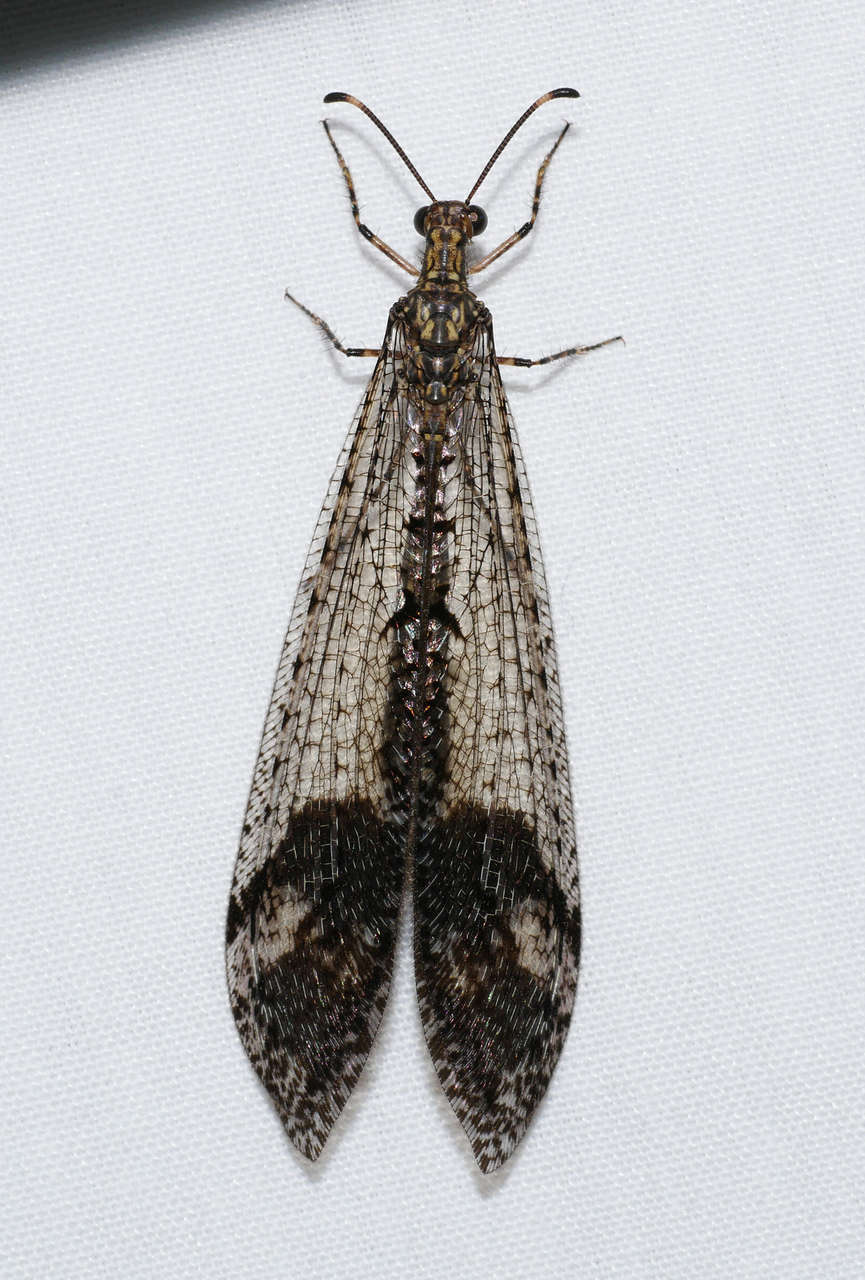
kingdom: Animalia
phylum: Arthropoda
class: Insecta
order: Neuroptera
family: Myrmeleontidae
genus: Glenoleon
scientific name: Glenoleon pulchellus
